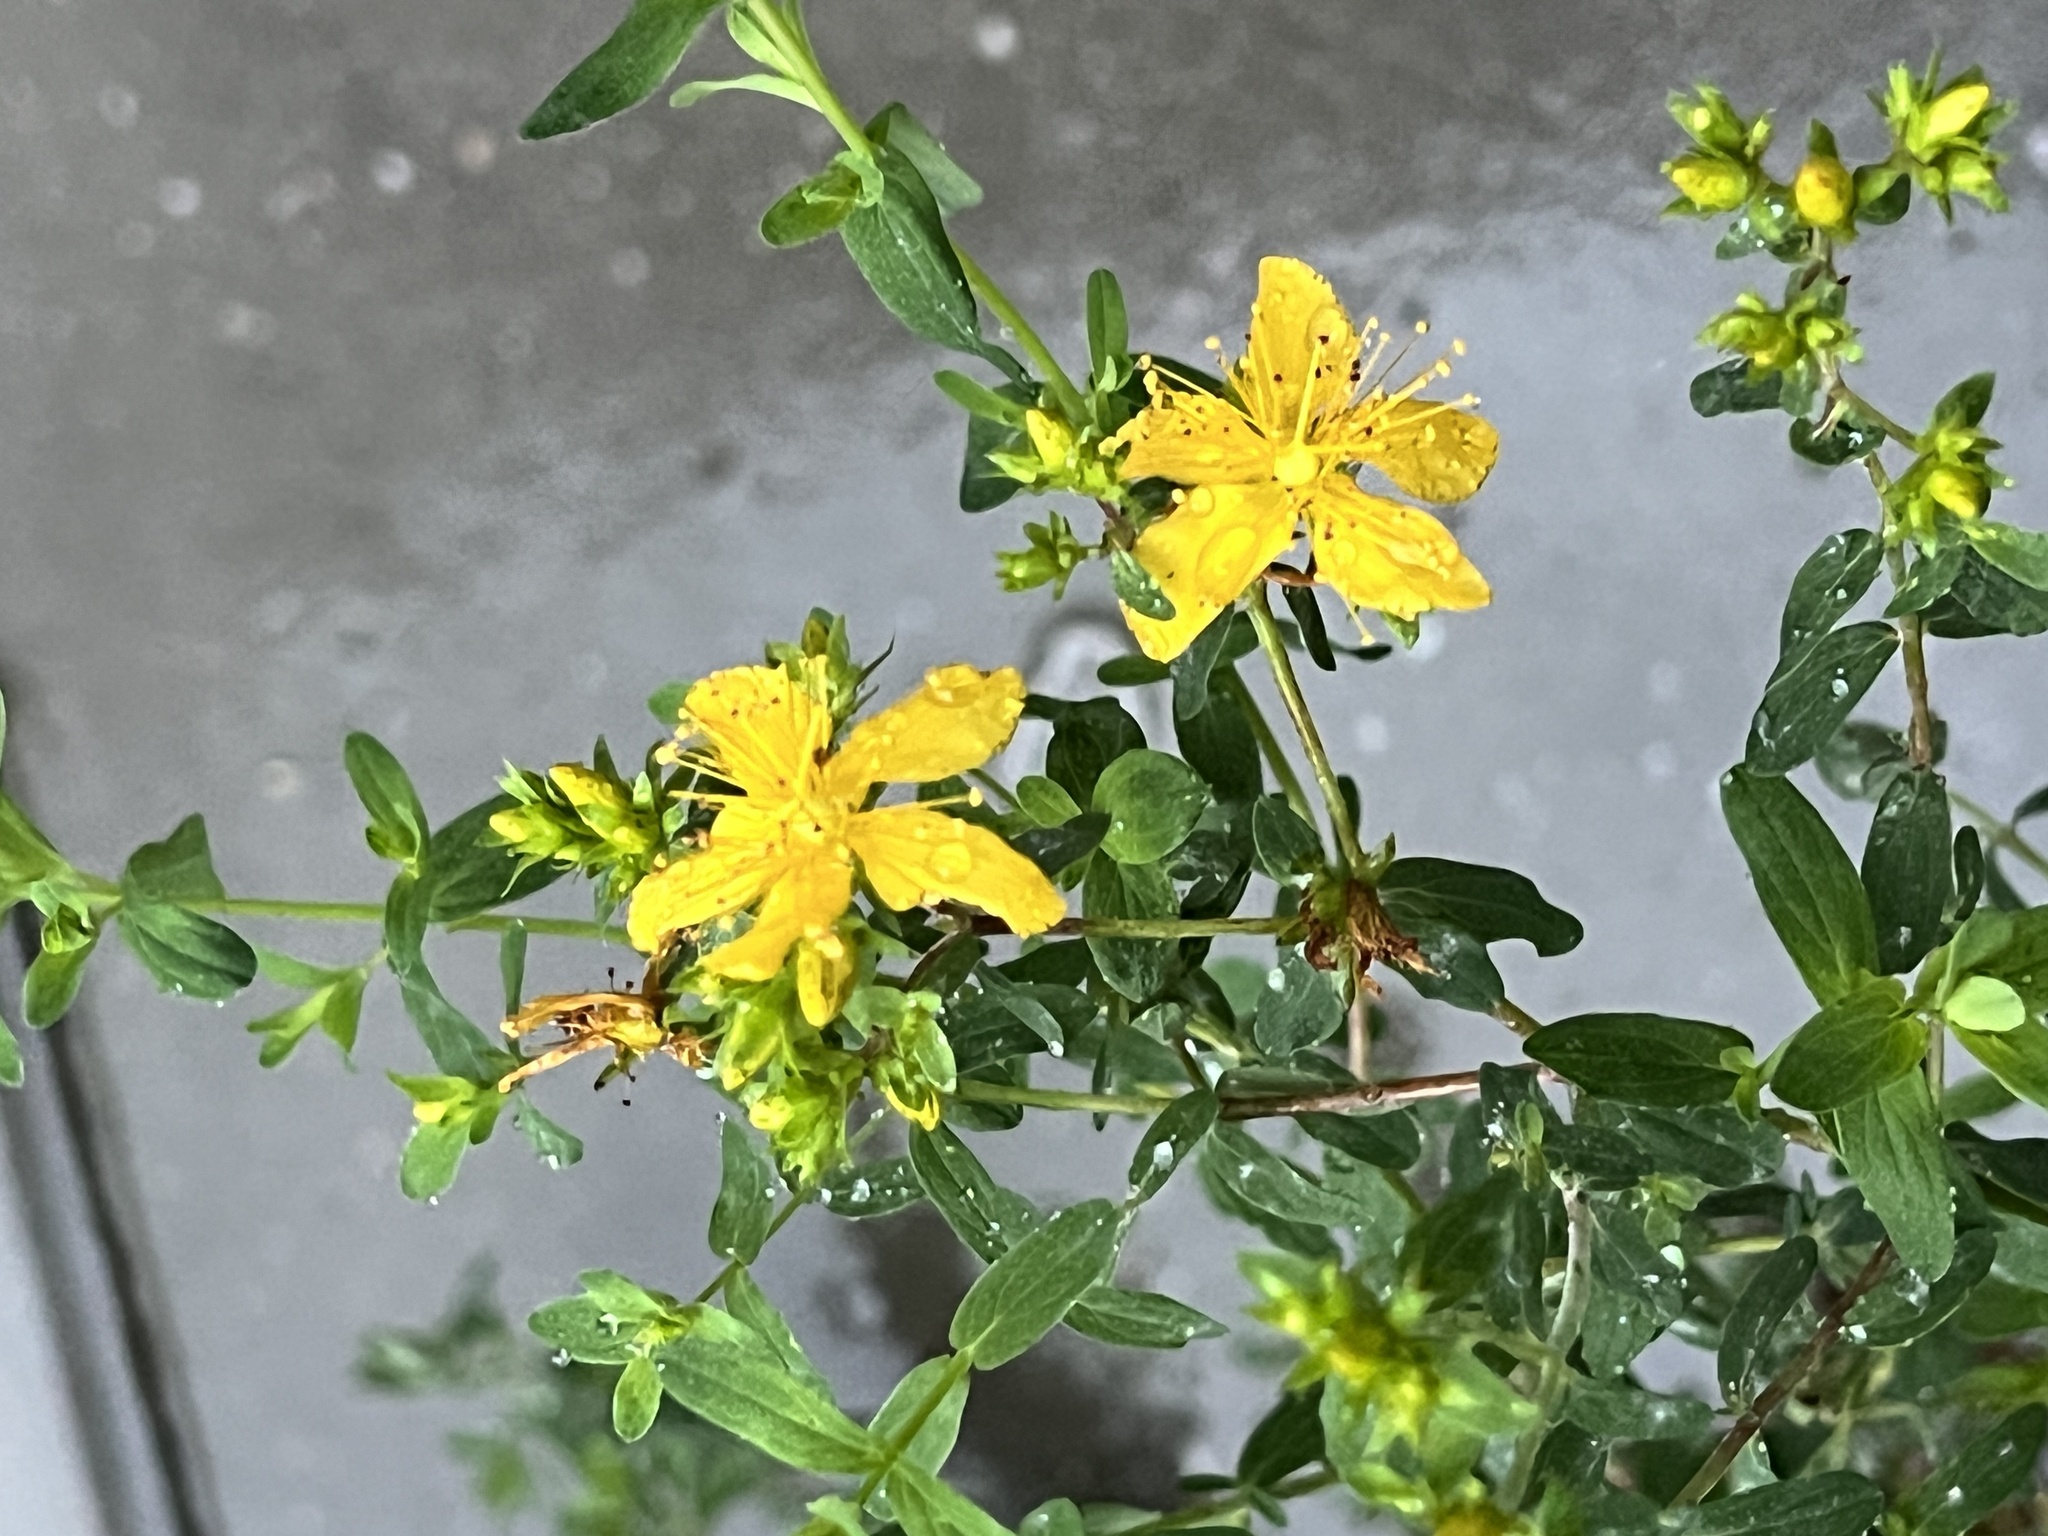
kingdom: Plantae
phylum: Tracheophyta
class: Magnoliopsida
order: Malpighiales
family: Hypericaceae
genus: Hypericum
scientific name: Hypericum perforatum
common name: Common st. johnswort
